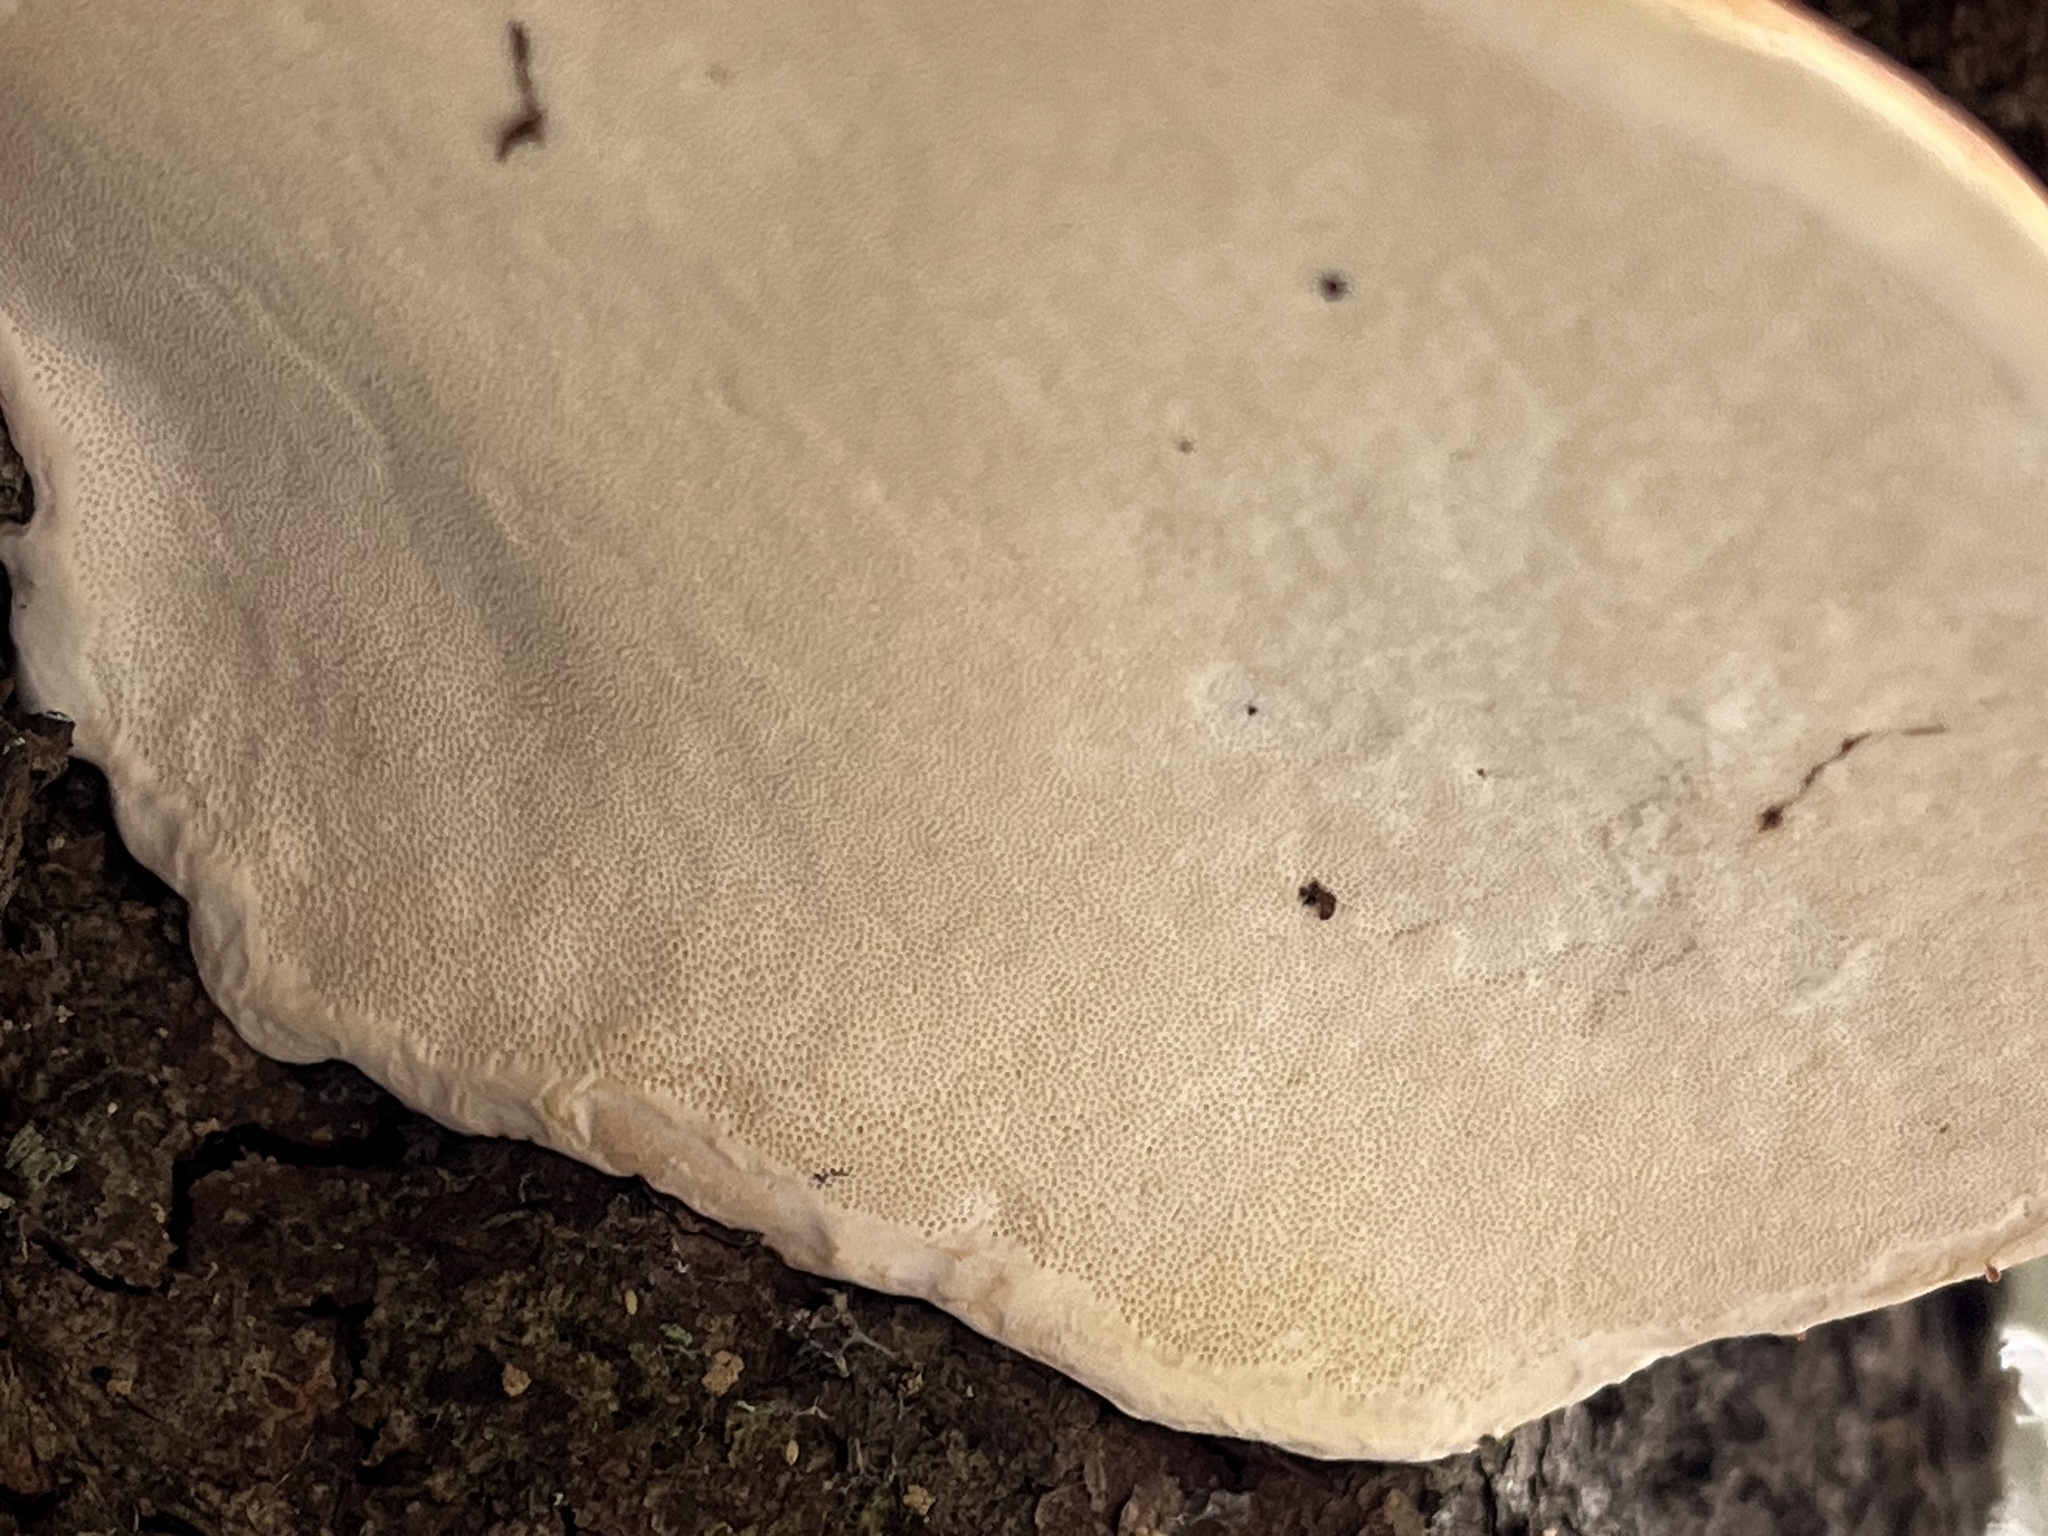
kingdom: Fungi
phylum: Basidiomycota
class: Agaricomycetes
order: Polyporales
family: Fomitopsidaceae
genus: Fomitopsis
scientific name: Fomitopsis mounceae
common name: Northern red belt
